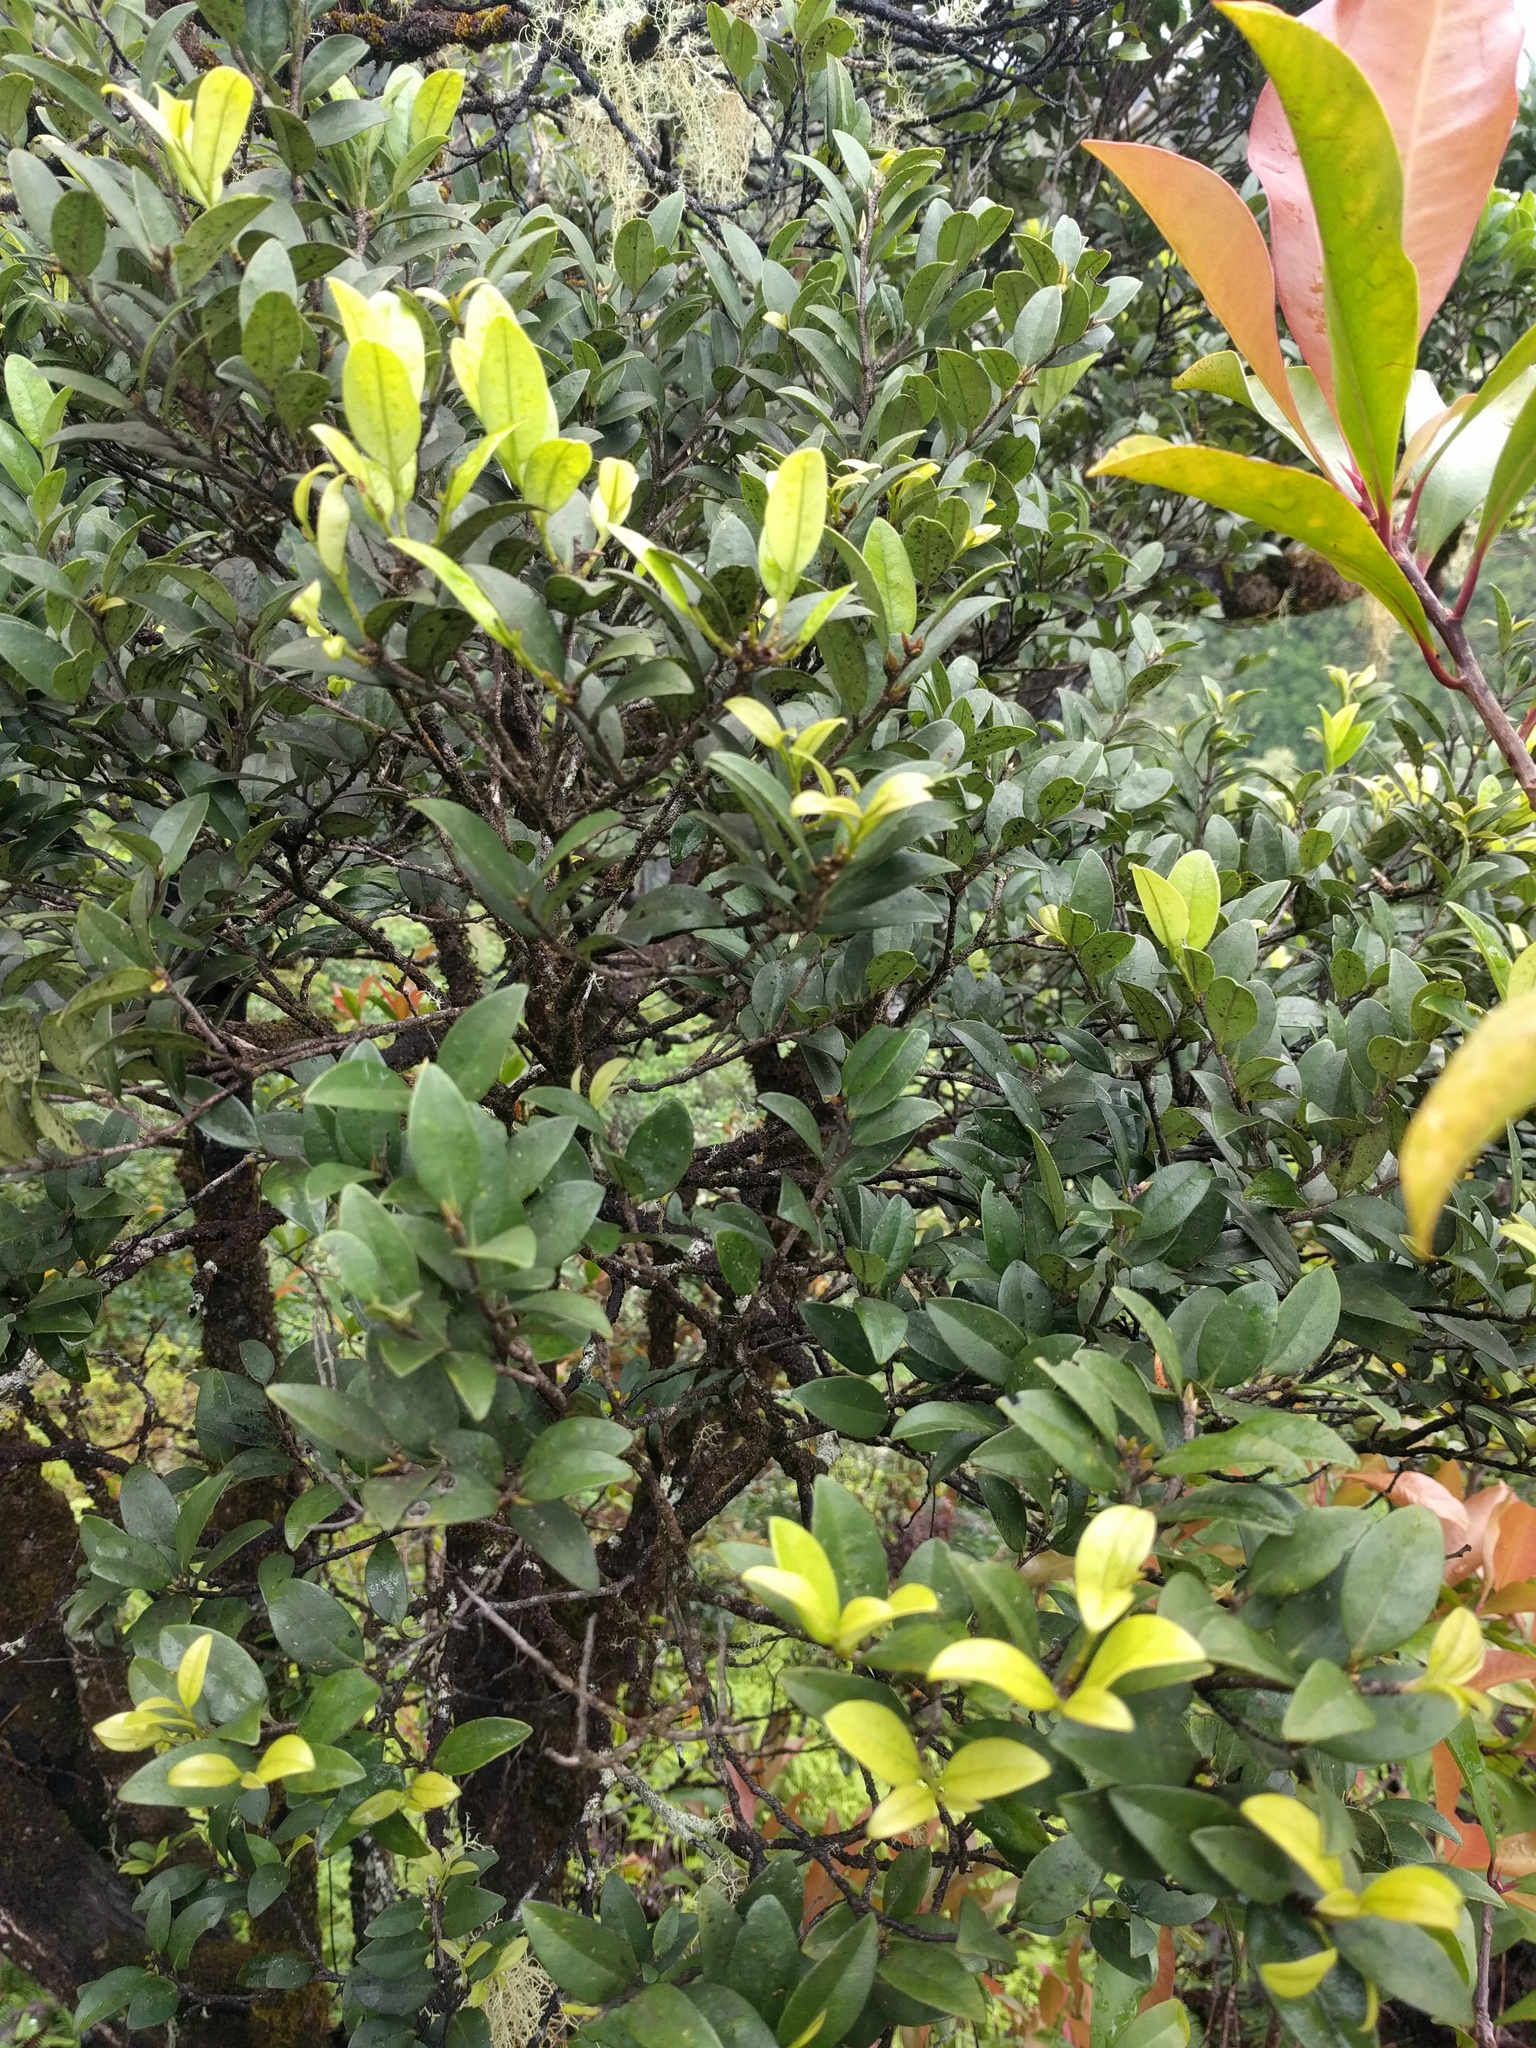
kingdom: Plantae
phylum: Tracheophyta
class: Magnoliopsida
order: Ericales
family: Ebenaceae
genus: Diospyros
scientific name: Diospyros sandwicensis
